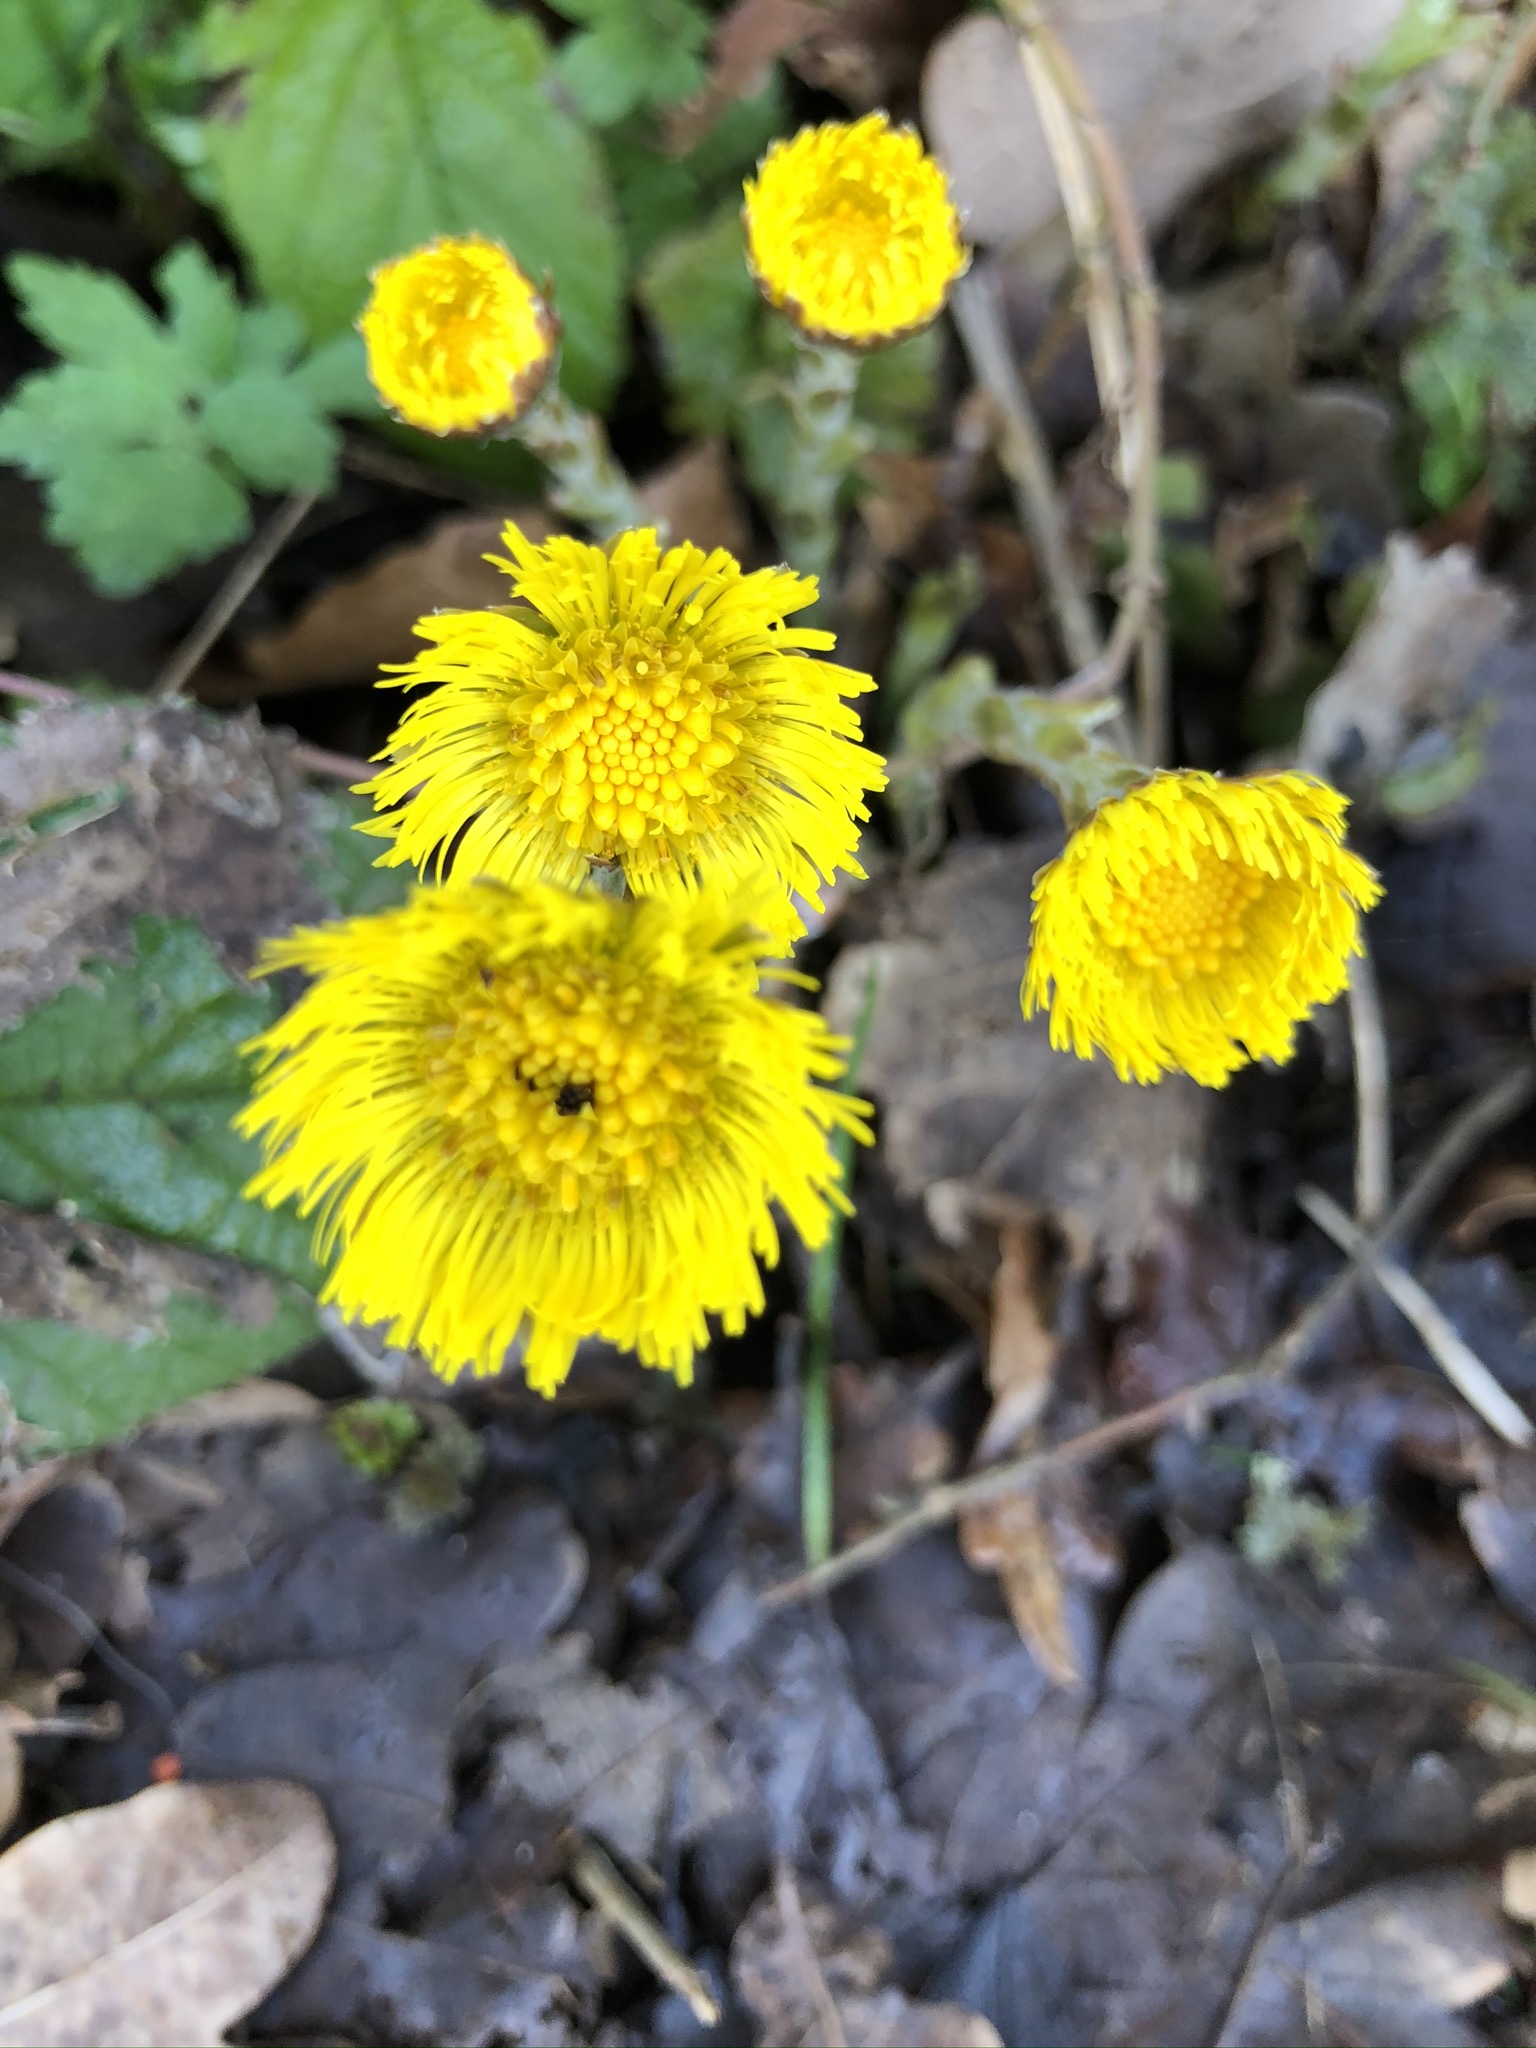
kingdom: Plantae
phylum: Tracheophyta
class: Magnoliopsida
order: Asterales
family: Asteraceae
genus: Tussilago
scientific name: Tussilago farfara
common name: Coltsfoot
